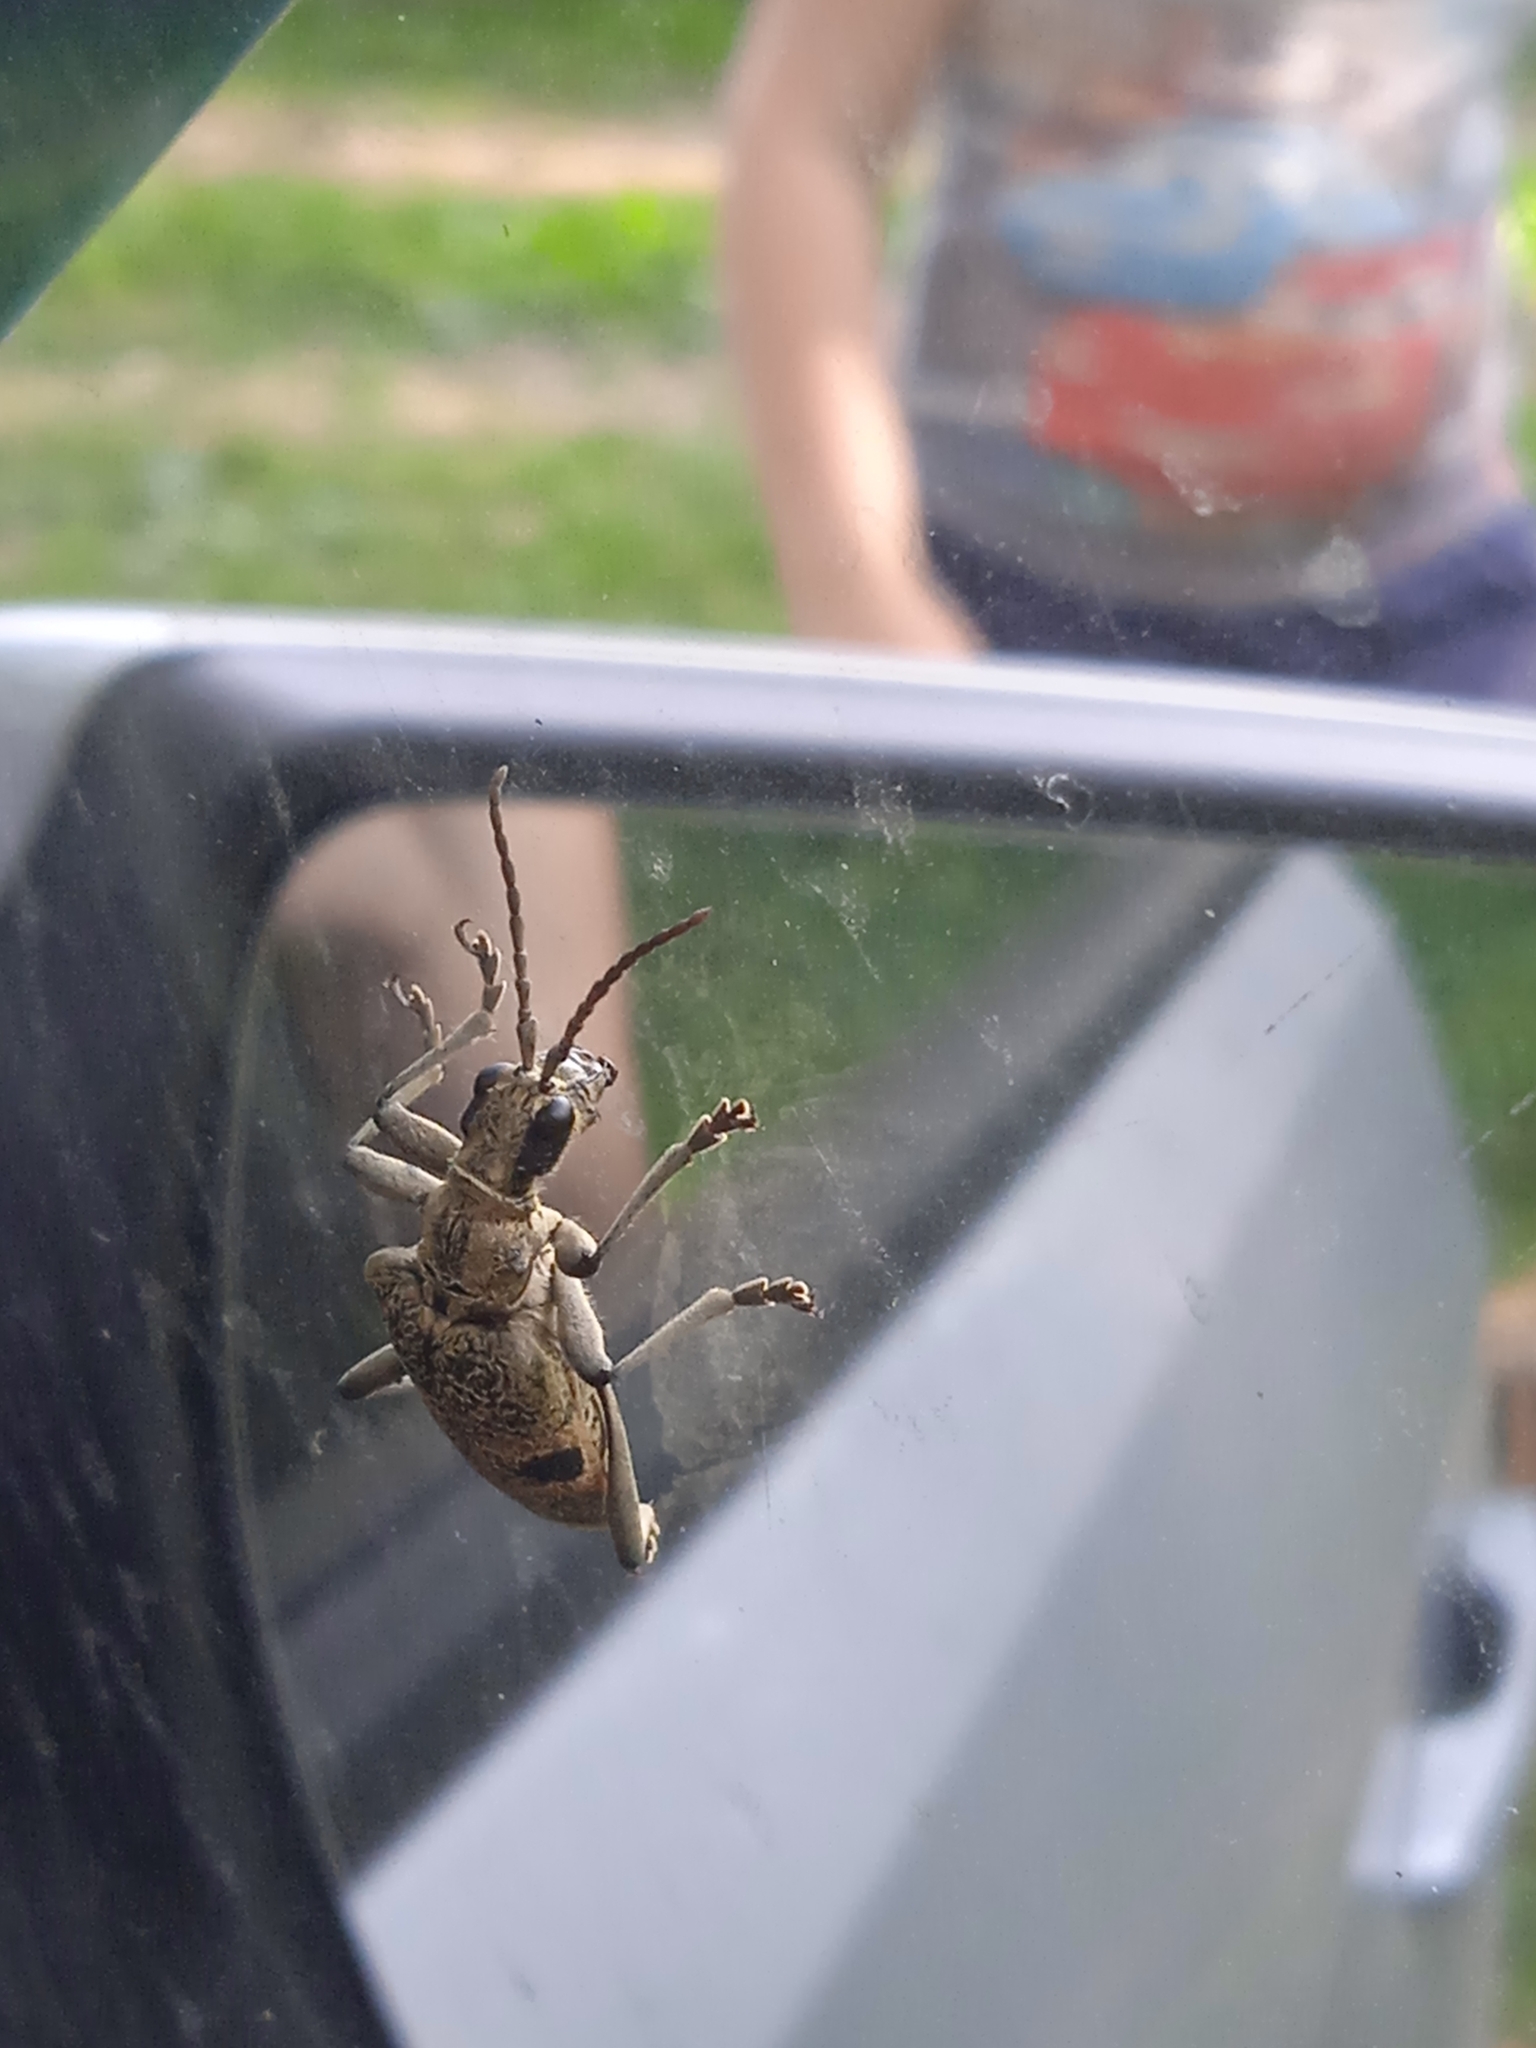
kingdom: Animalia
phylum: Arthropoda
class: Insecta
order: Coleoptera
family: Cerambycidae
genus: Rhagium
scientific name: Rhagium mordax
